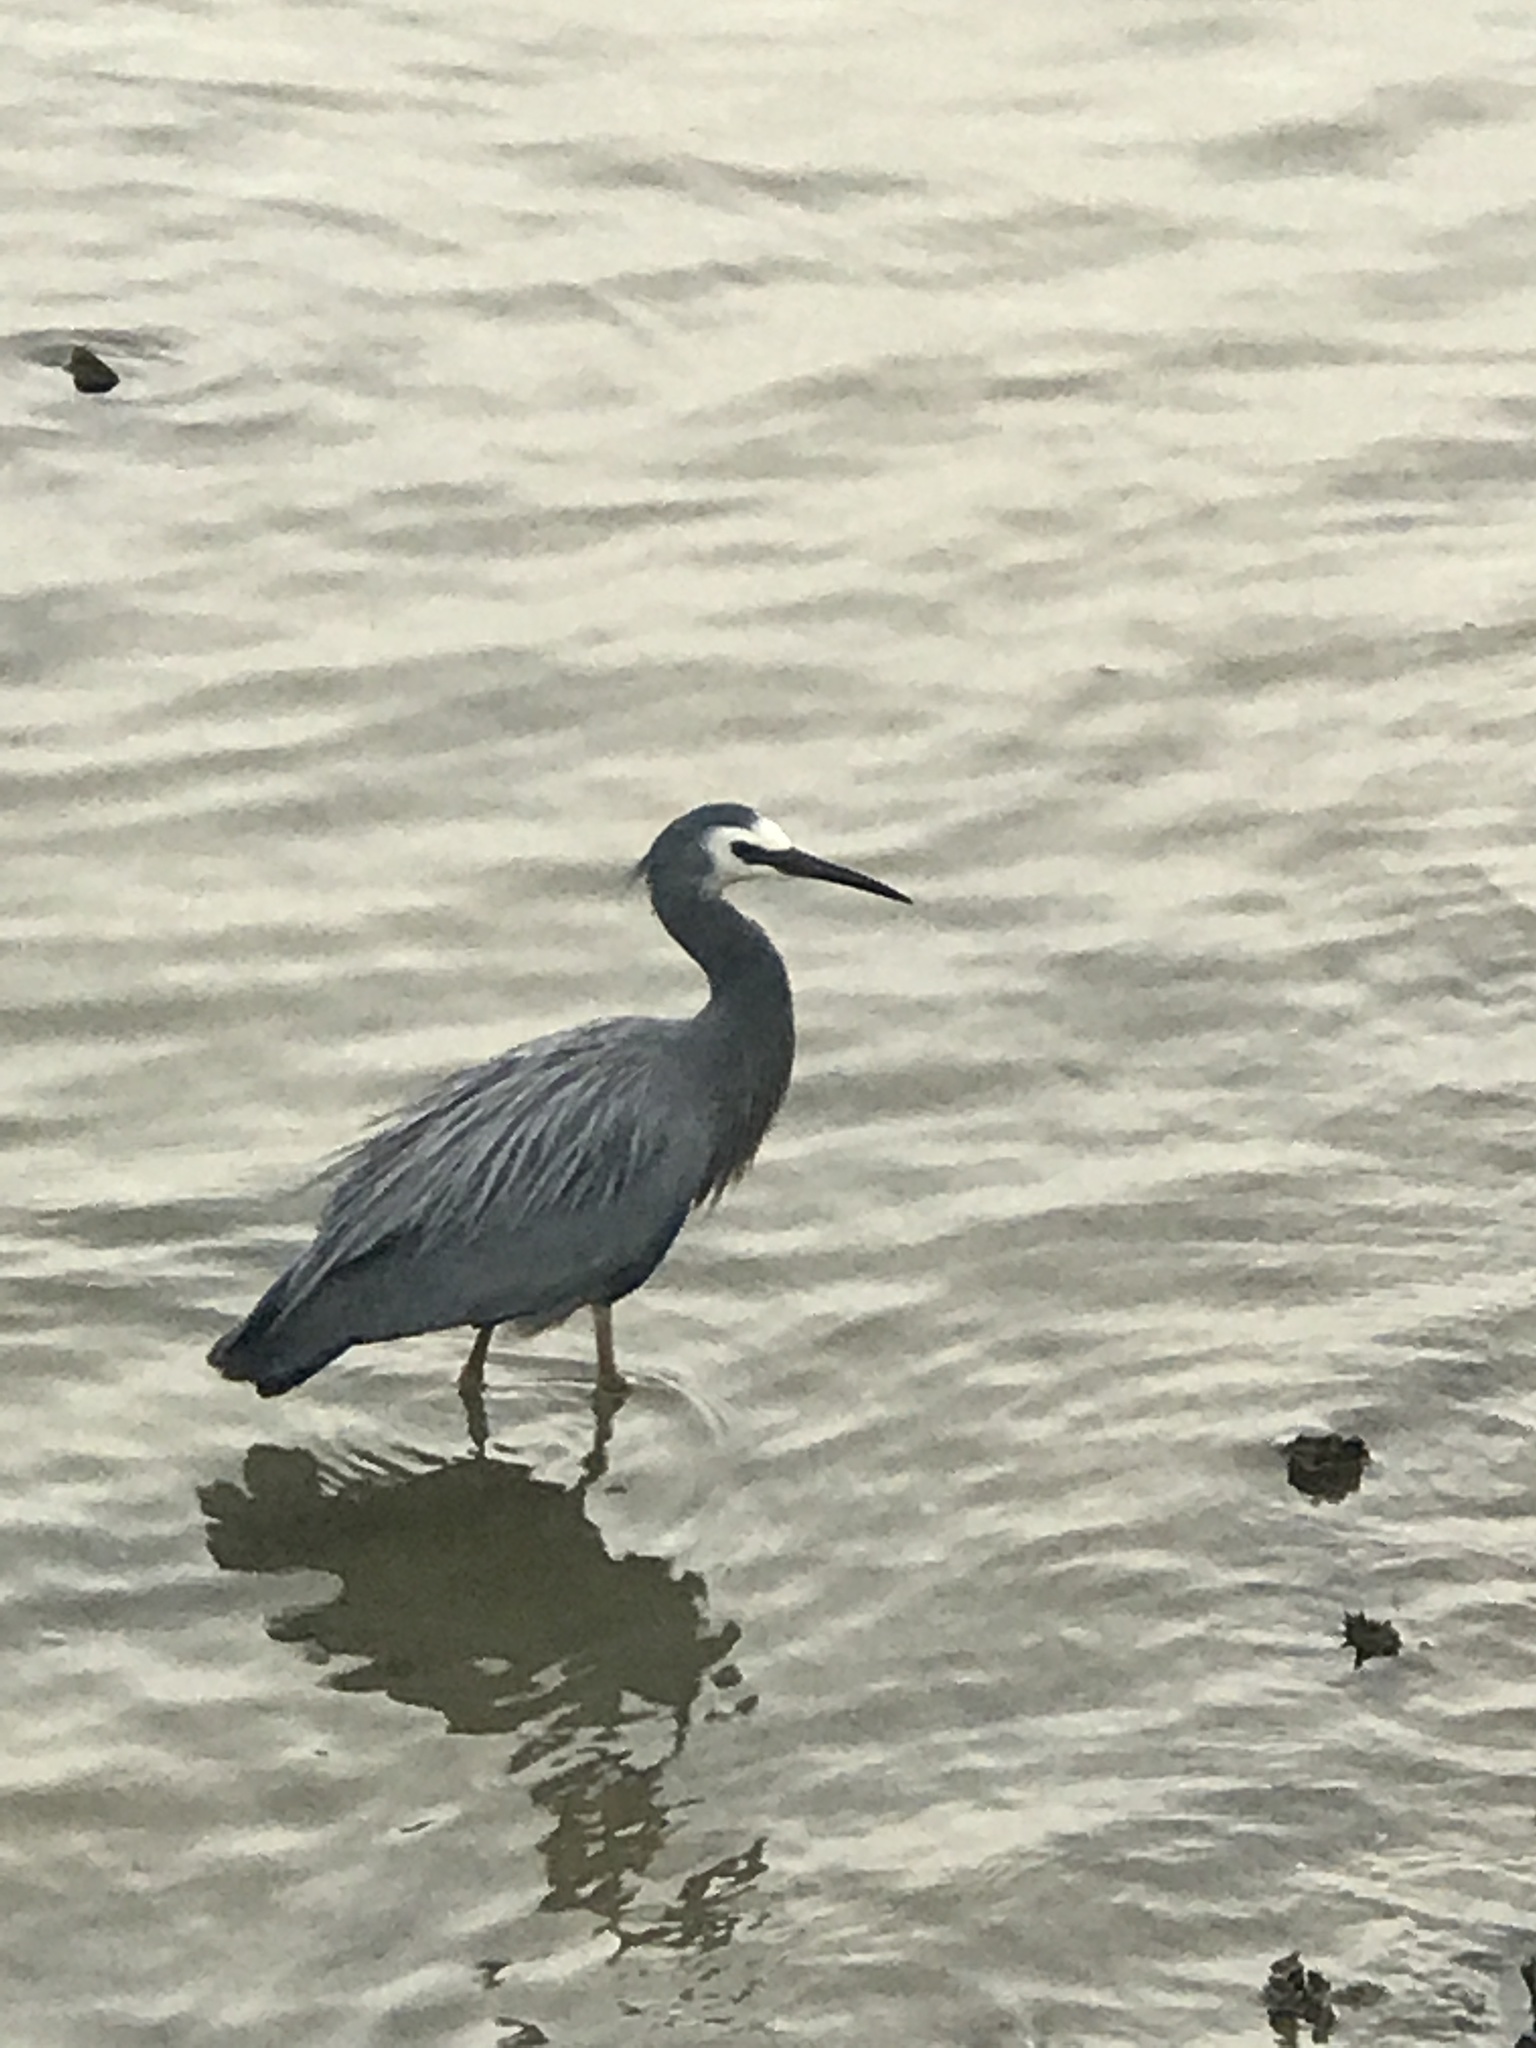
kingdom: Animalia
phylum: Chordata
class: Aves
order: Pelecaniformes
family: Ardeidae
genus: Egretta
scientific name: Egretta novaehollandiae
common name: White-faced heron
